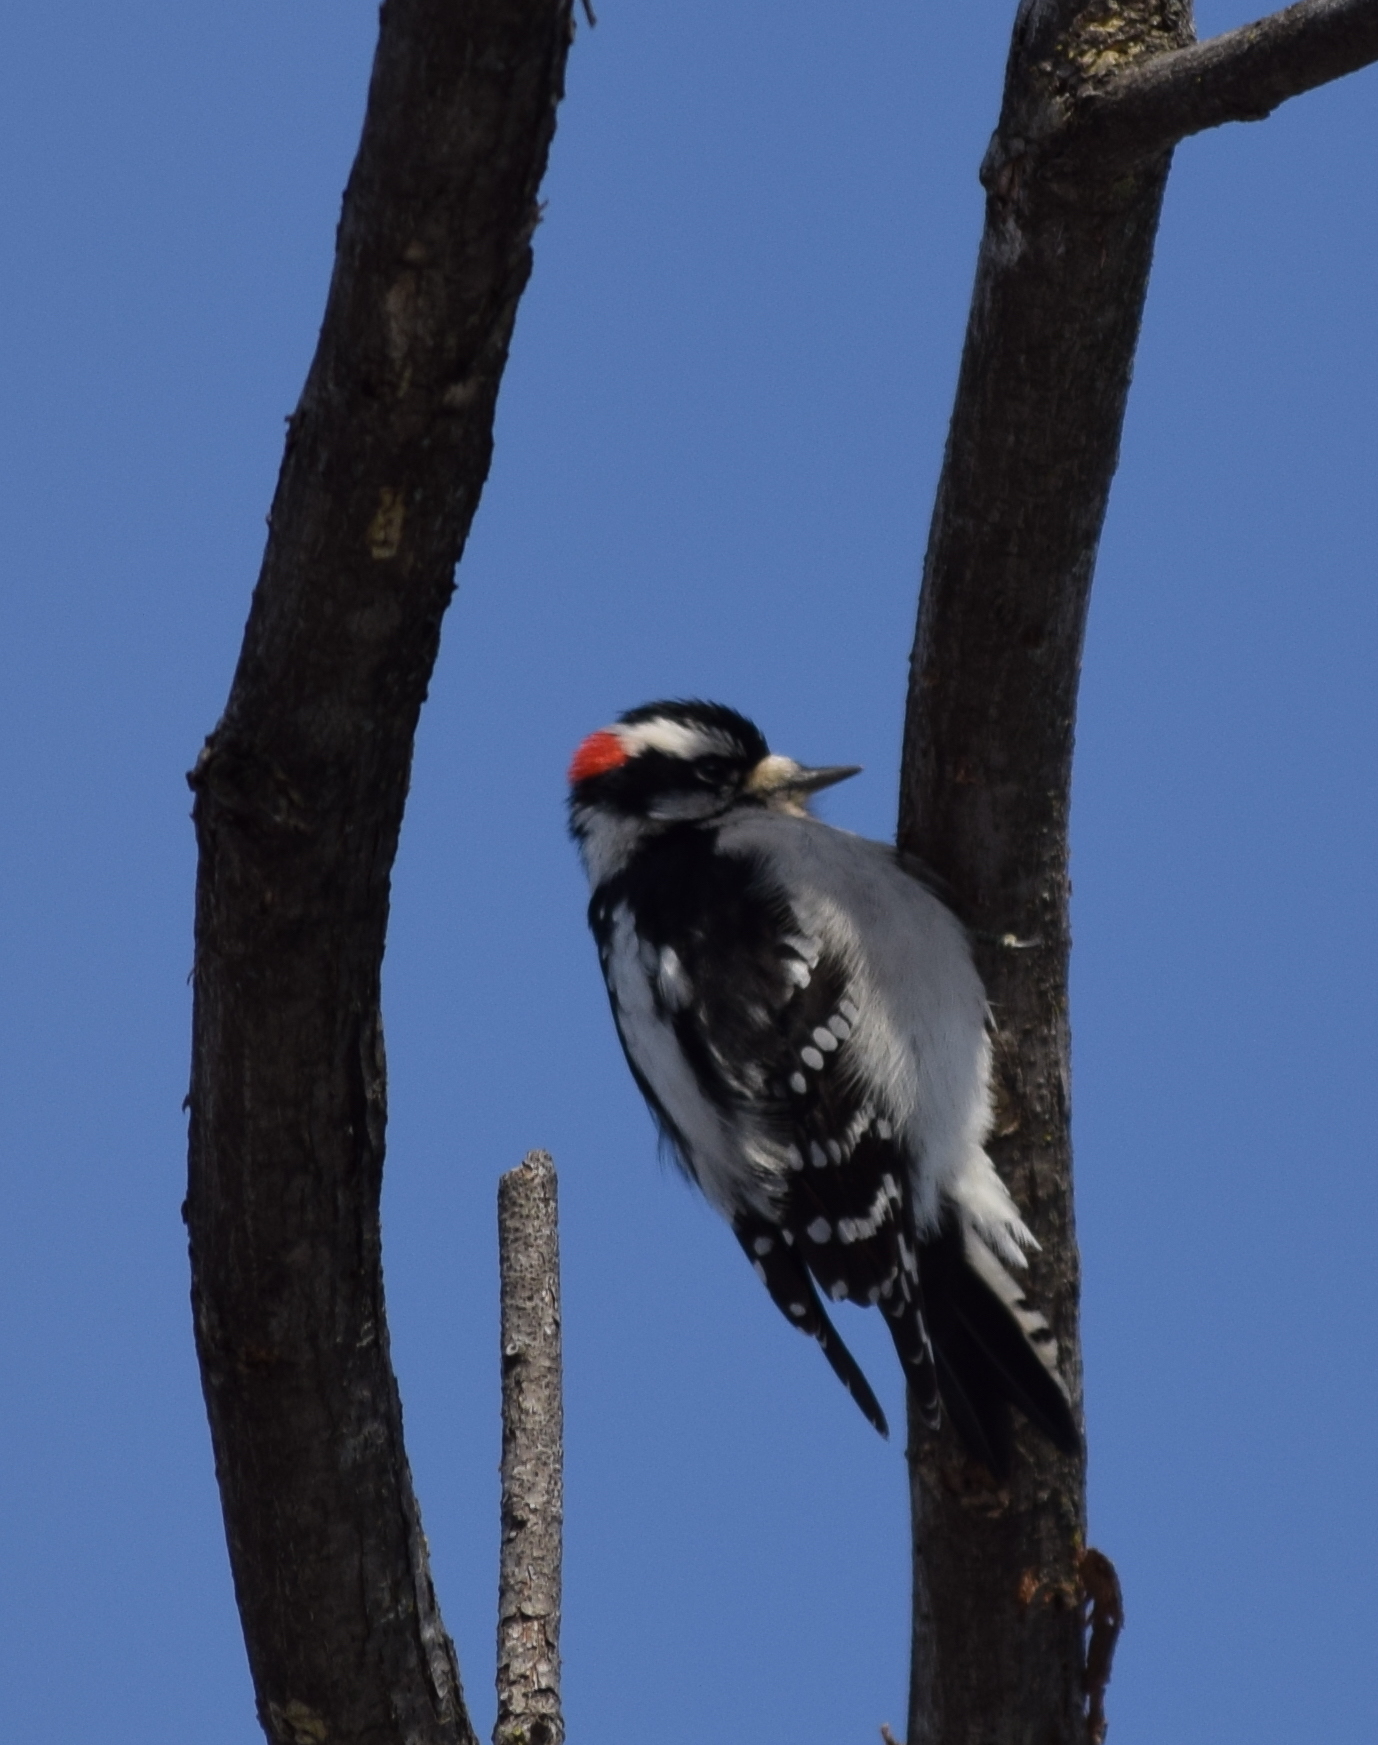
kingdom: Animalia
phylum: Chordata
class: Aves
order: Piciformes
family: Picidae
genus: Dryobates
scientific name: Dryobates pubescens
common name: Downy woodpecker
